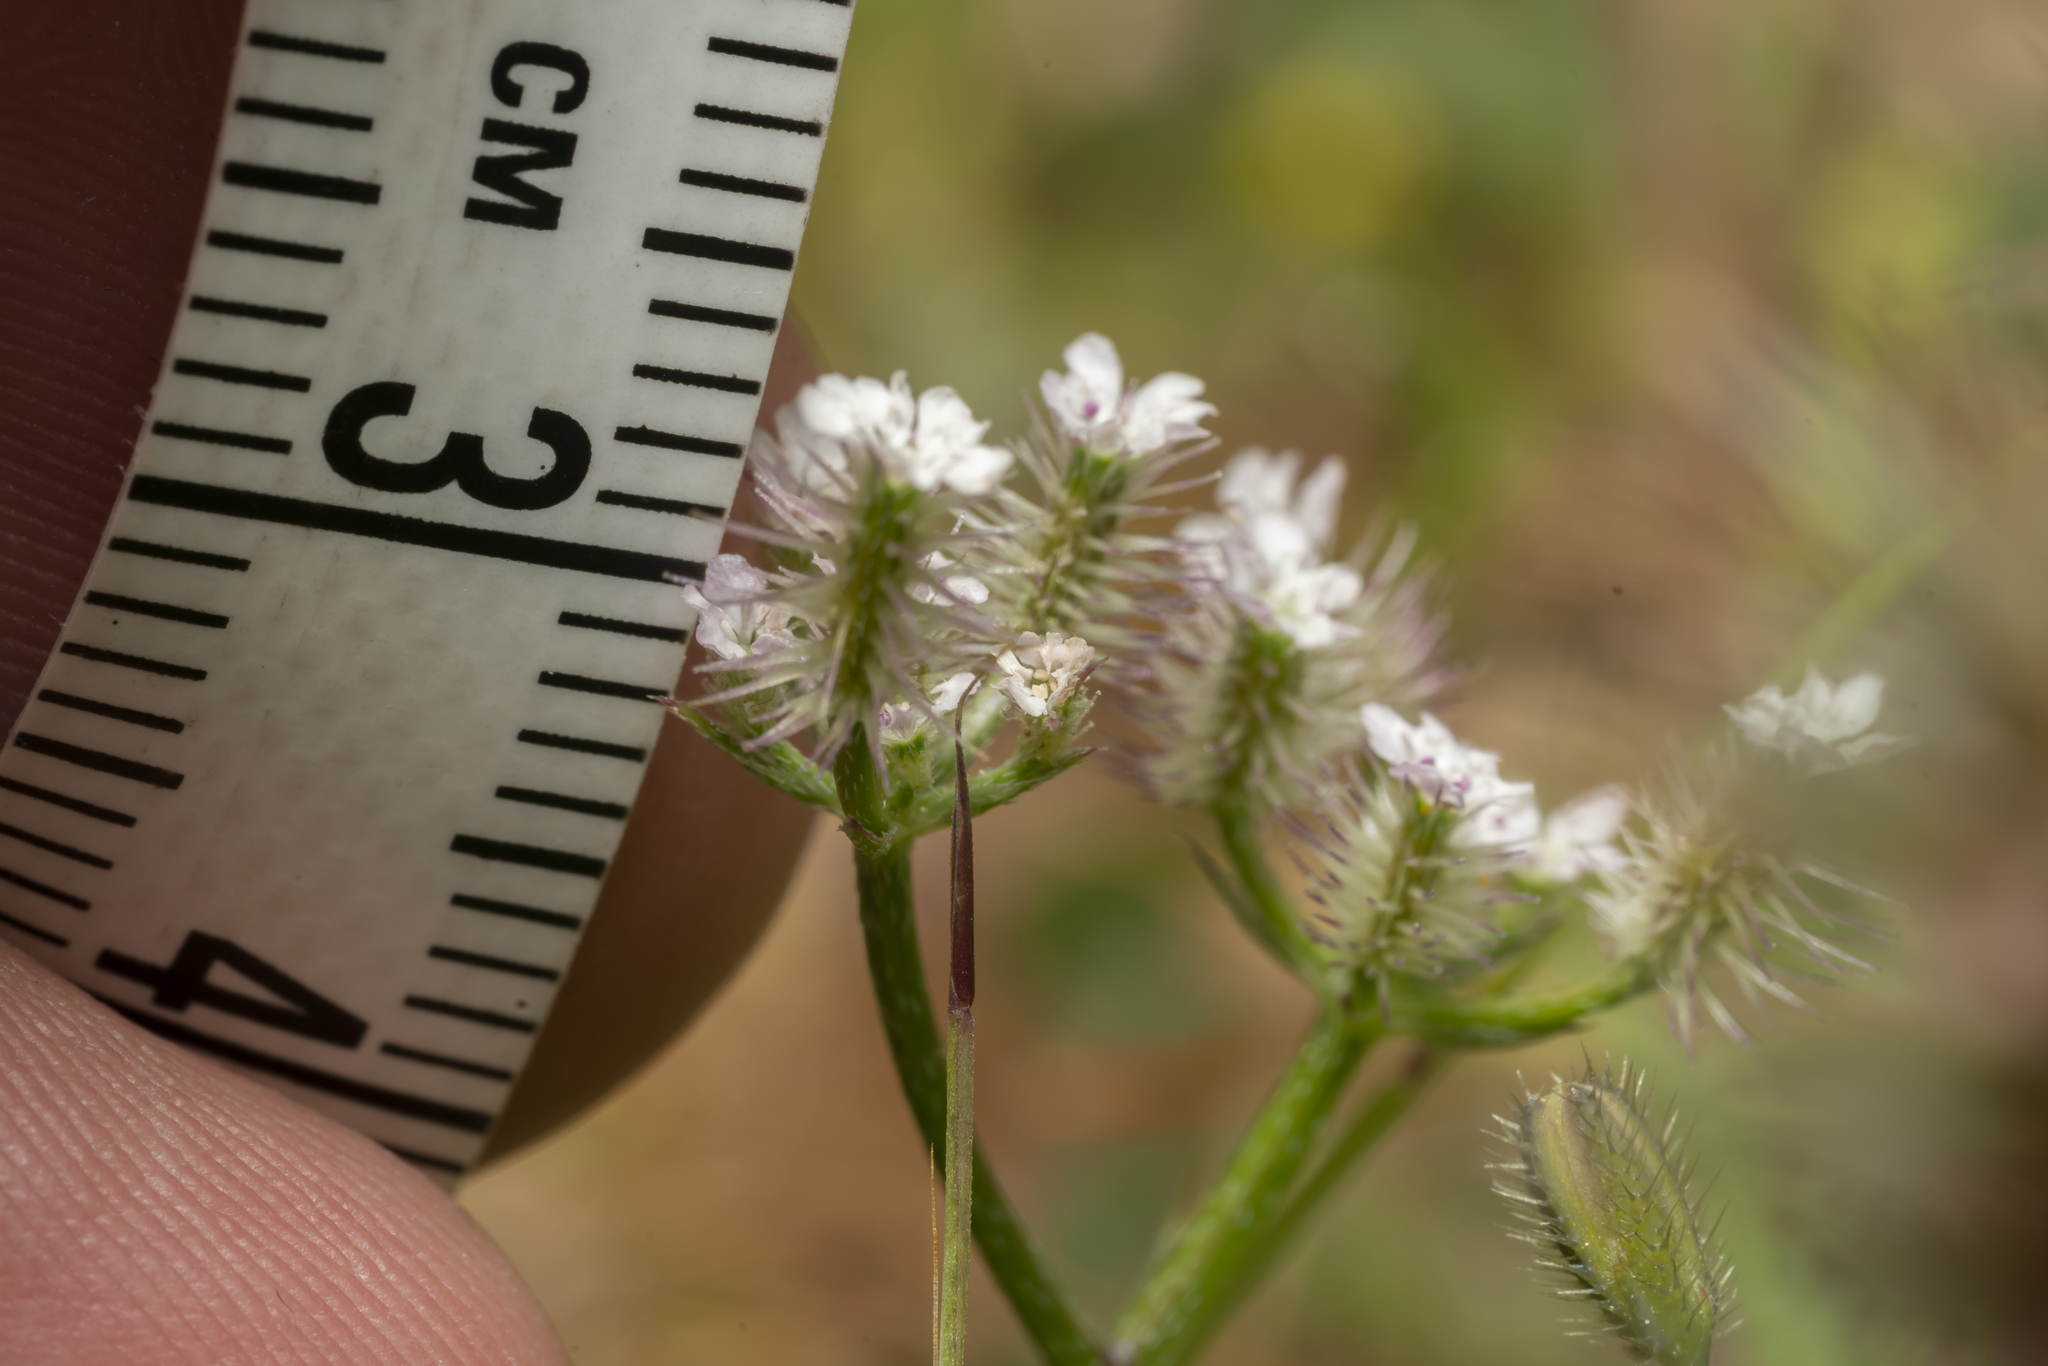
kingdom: Plantae
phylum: Tracheophyta
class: Magnoliopsida
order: Apiales
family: Apiaceae
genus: Torilis
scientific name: Torilis leptophylla
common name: Bristlefruit hedgeparsley
